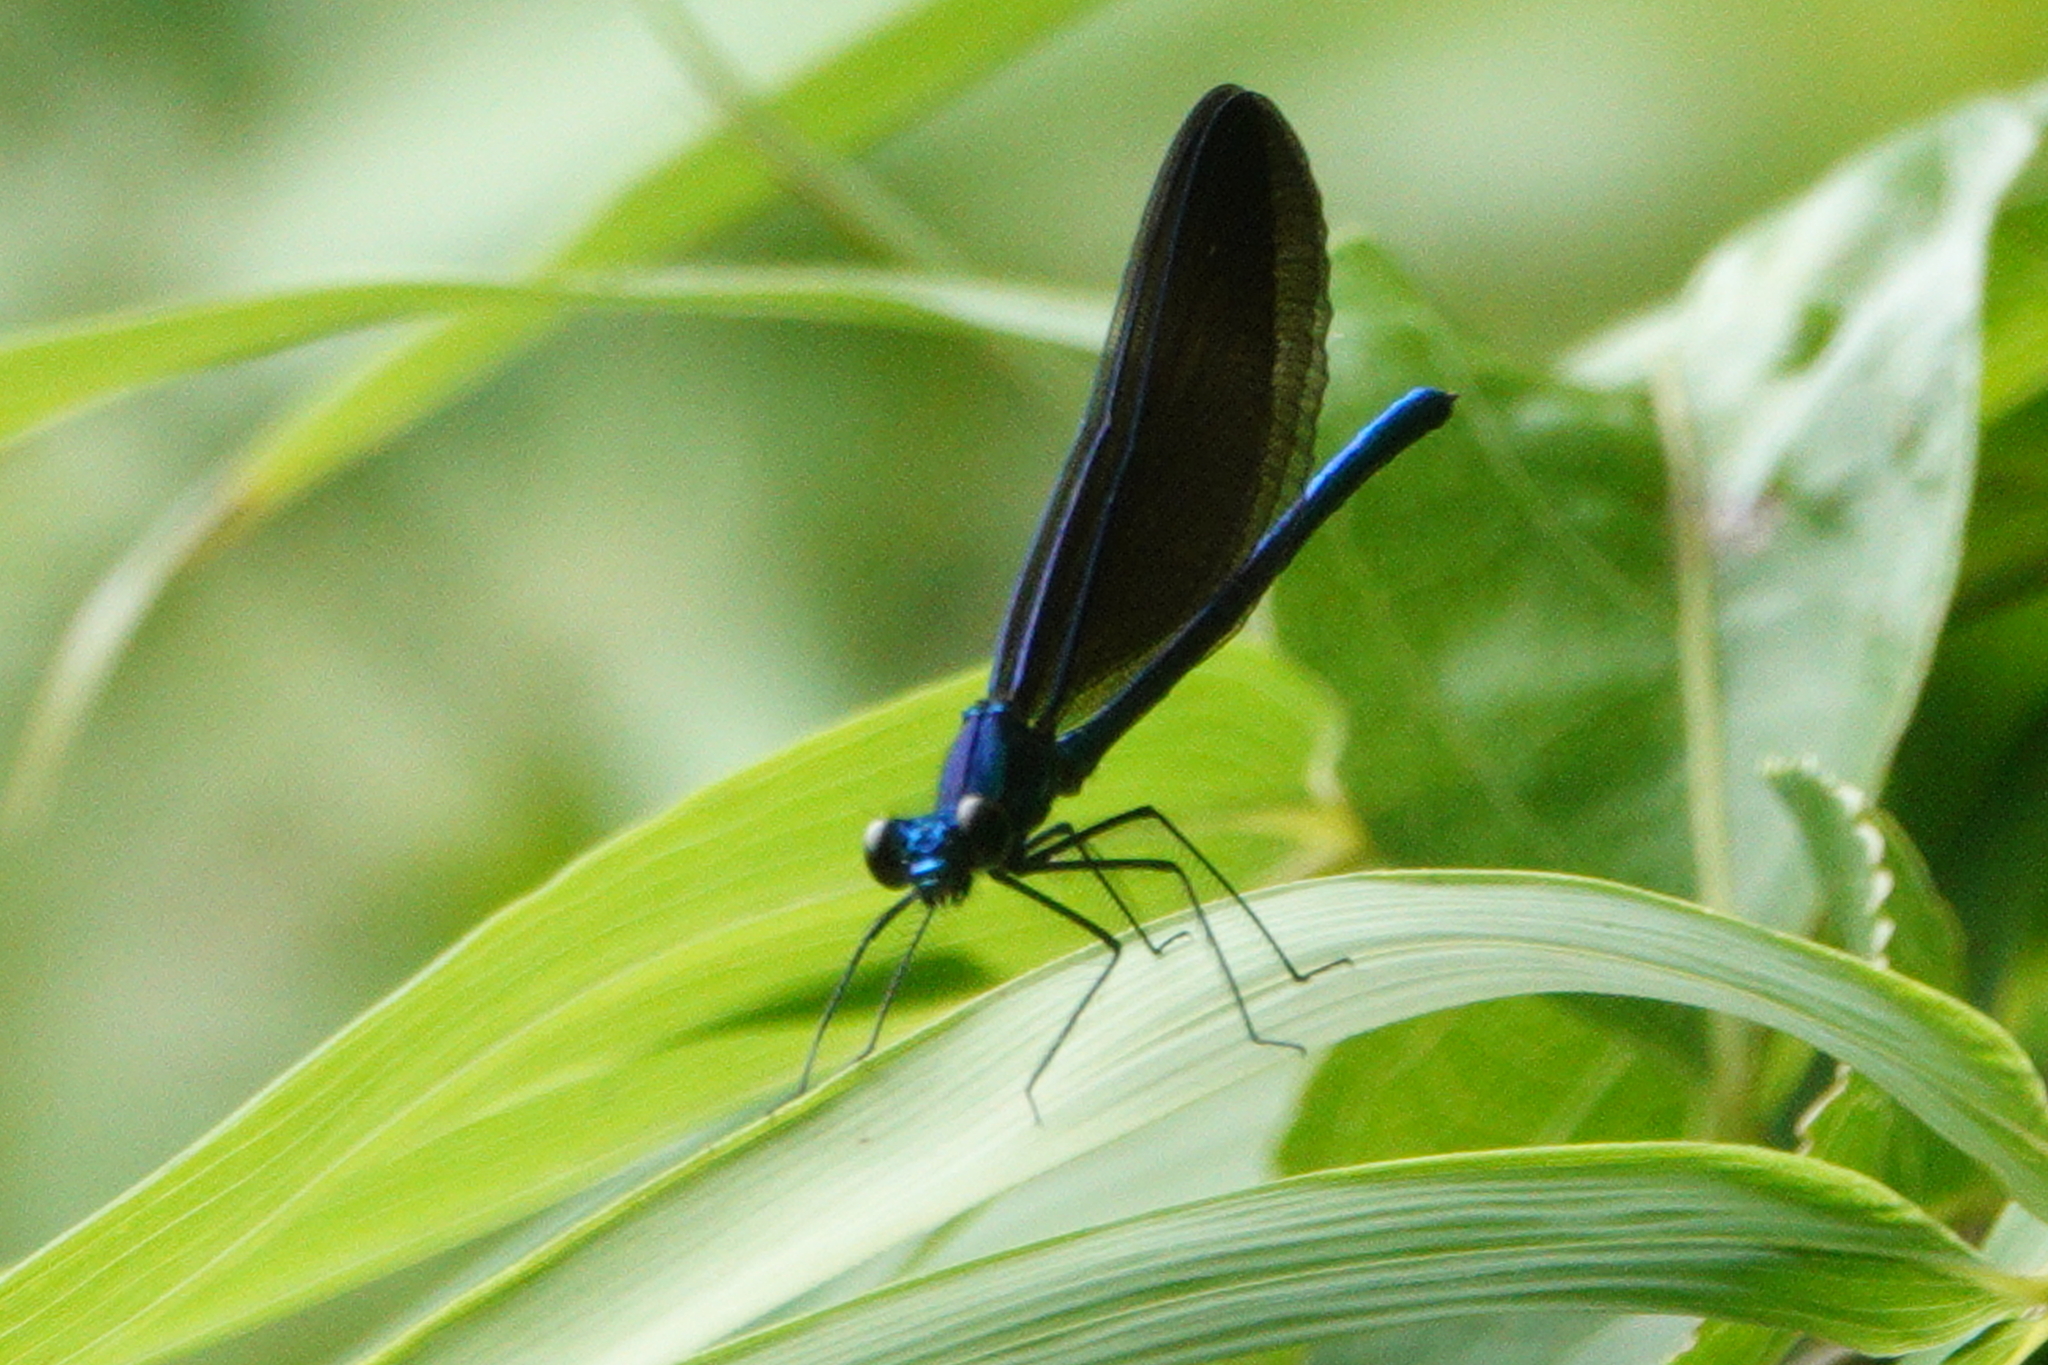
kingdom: Animalia
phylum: Arthropoda
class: Insecta
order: Odonata
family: Calopterygidae
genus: Calopteryx
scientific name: Calopteryx maculata
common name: Ebony jewelwing
